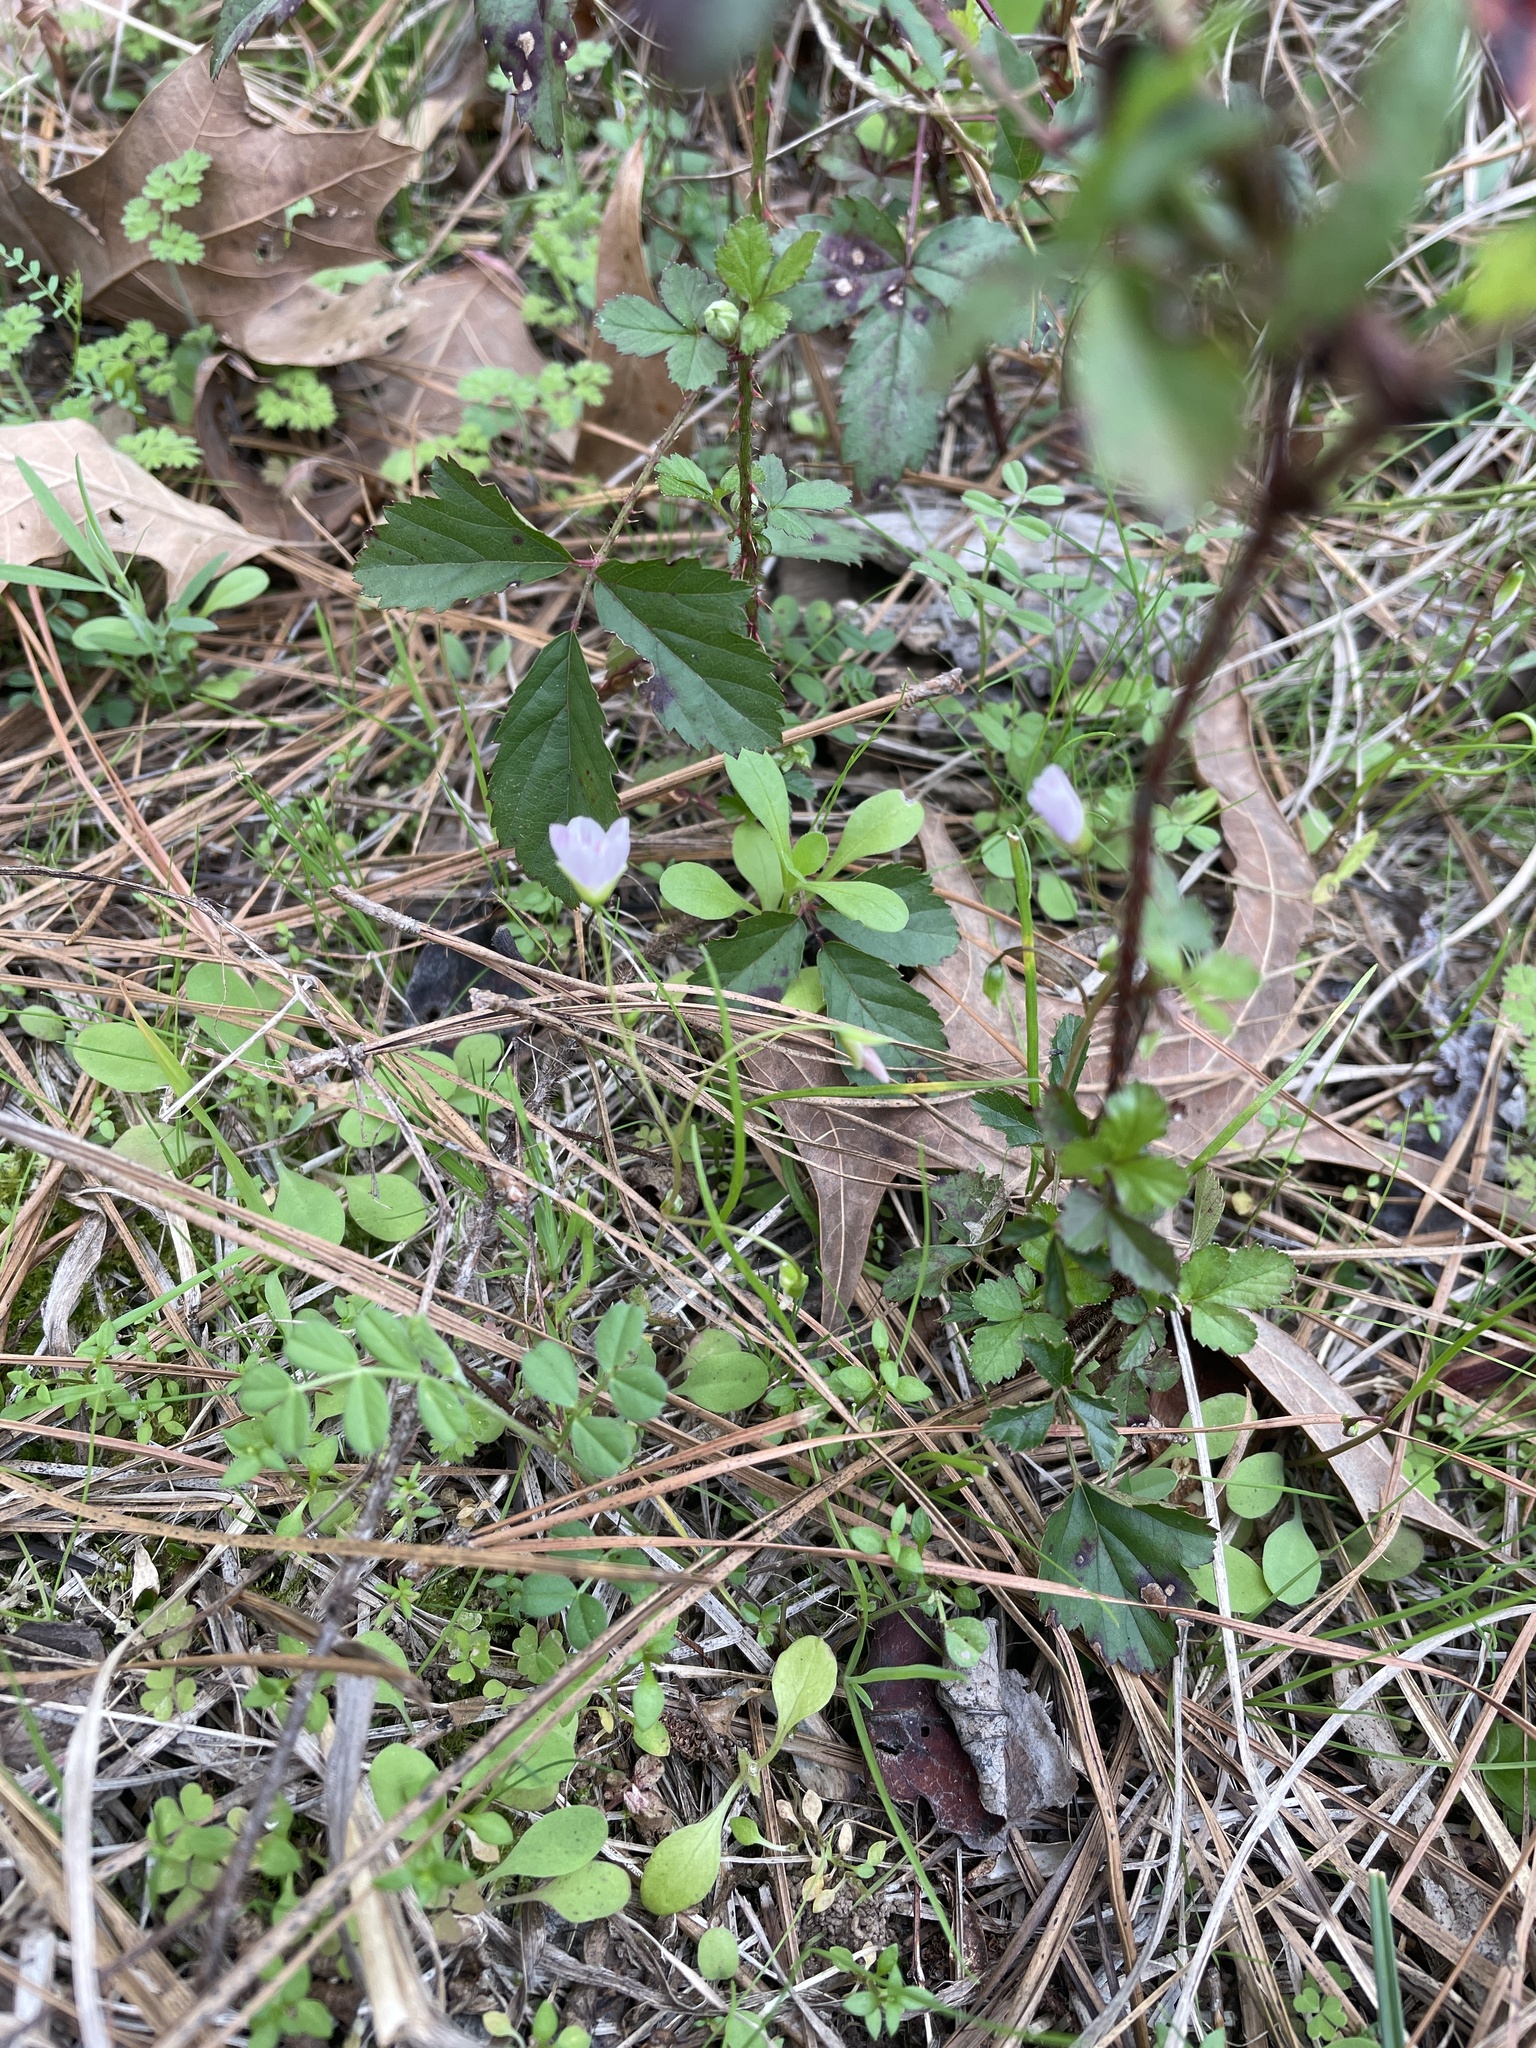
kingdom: Plantae
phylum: Tracheophyta
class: Magnoliopsida
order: Caryophyllales
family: Montiaceae
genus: Claytonia
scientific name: Claytonia virginica
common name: Virginia springbeauty
